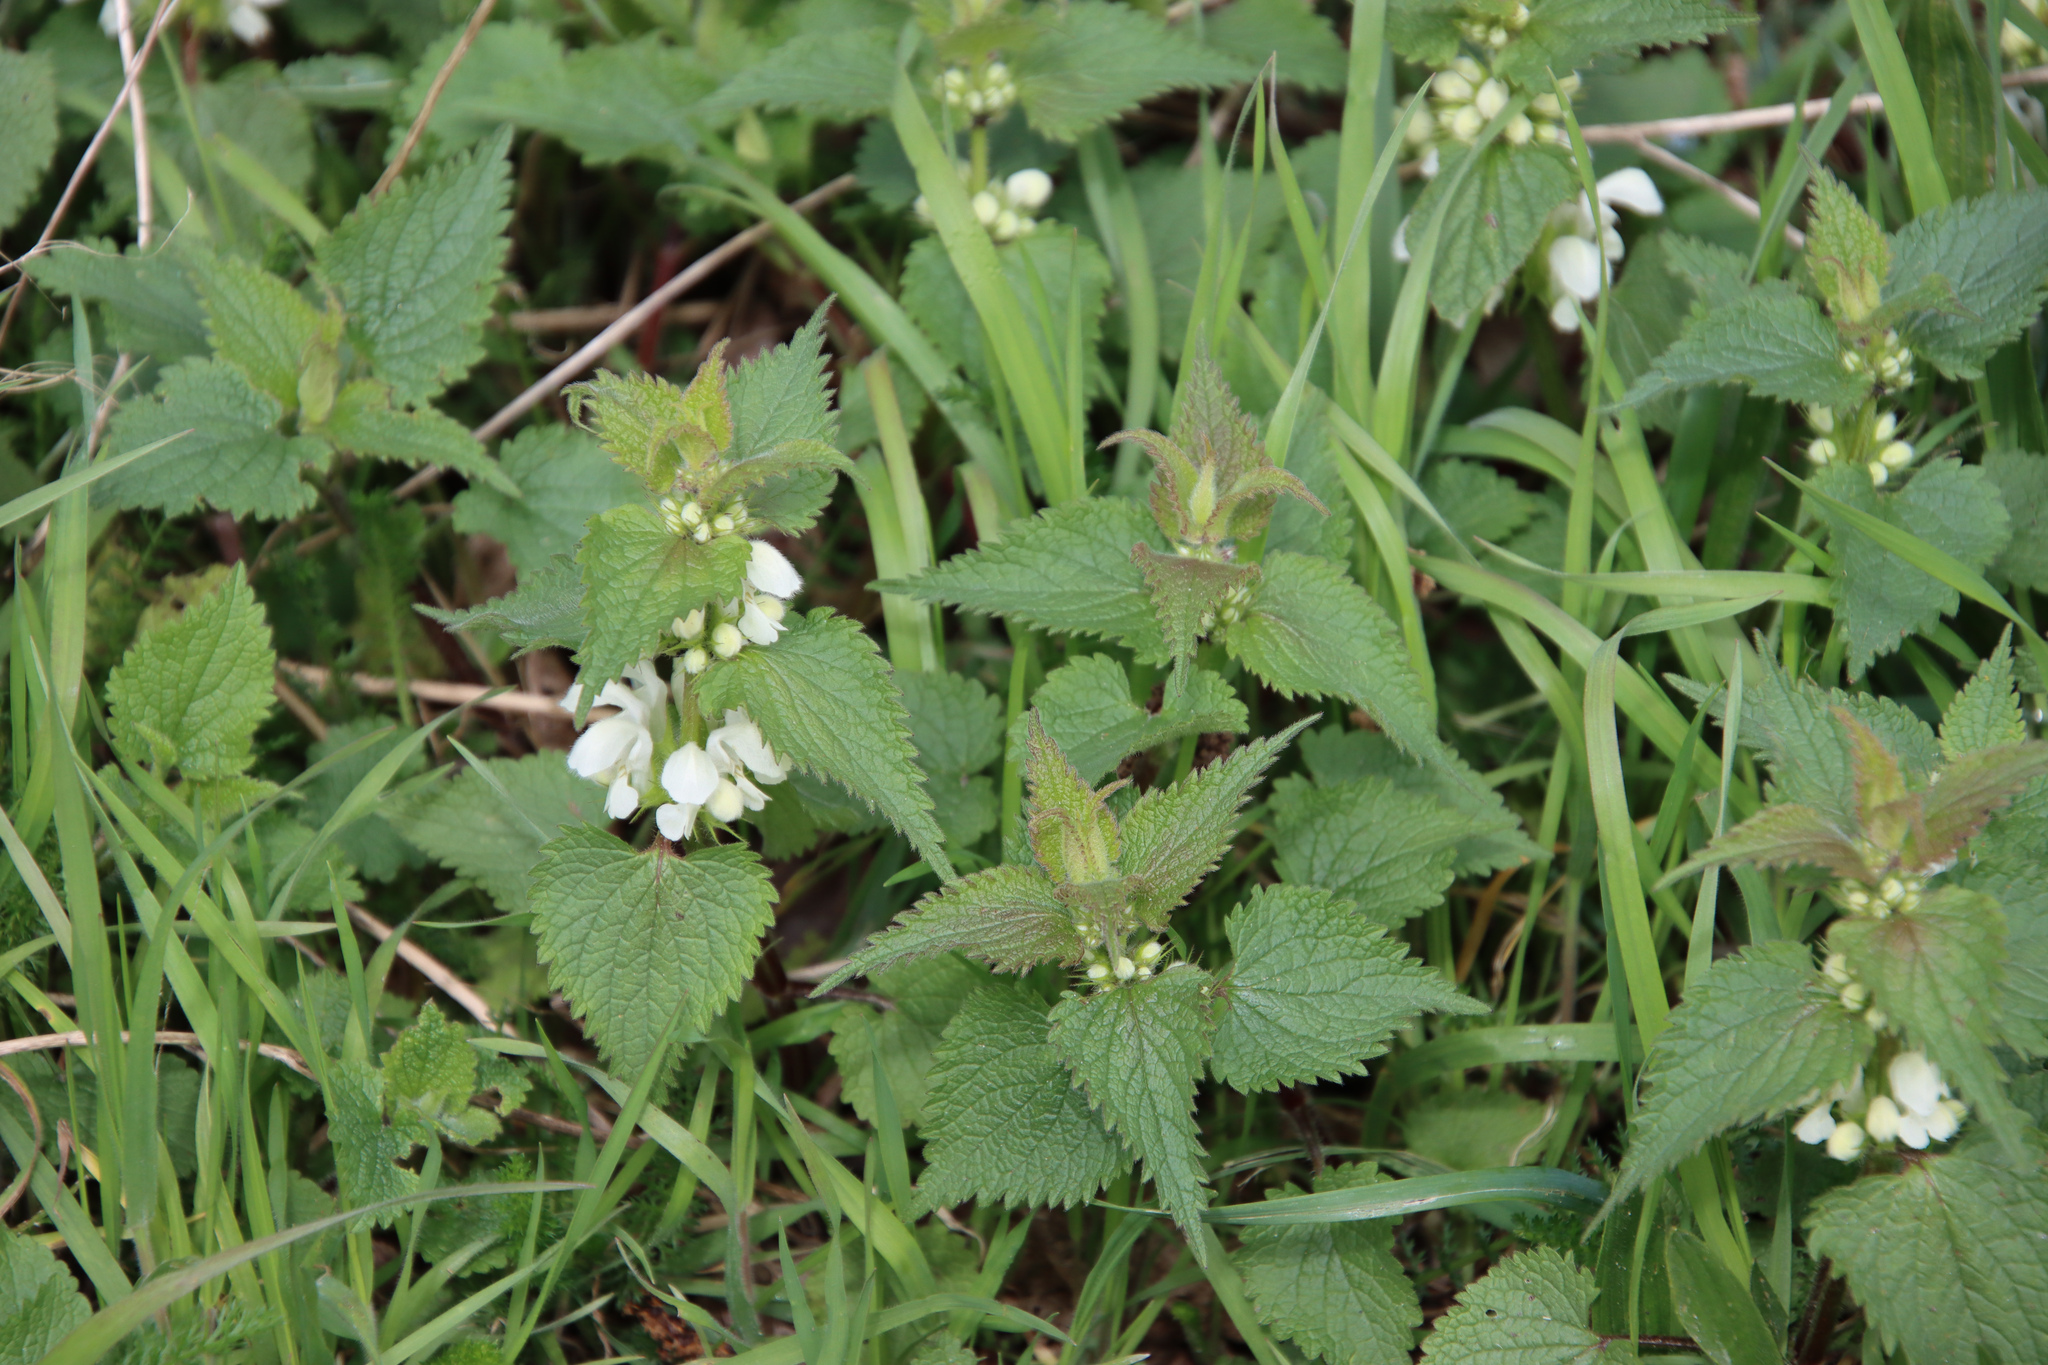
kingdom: Plantae
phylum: Tracheophyta
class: Magnoliopsida
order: Lamiales
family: Lamiaceae
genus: Lamium
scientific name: Lamium album
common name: White dead-nettle
